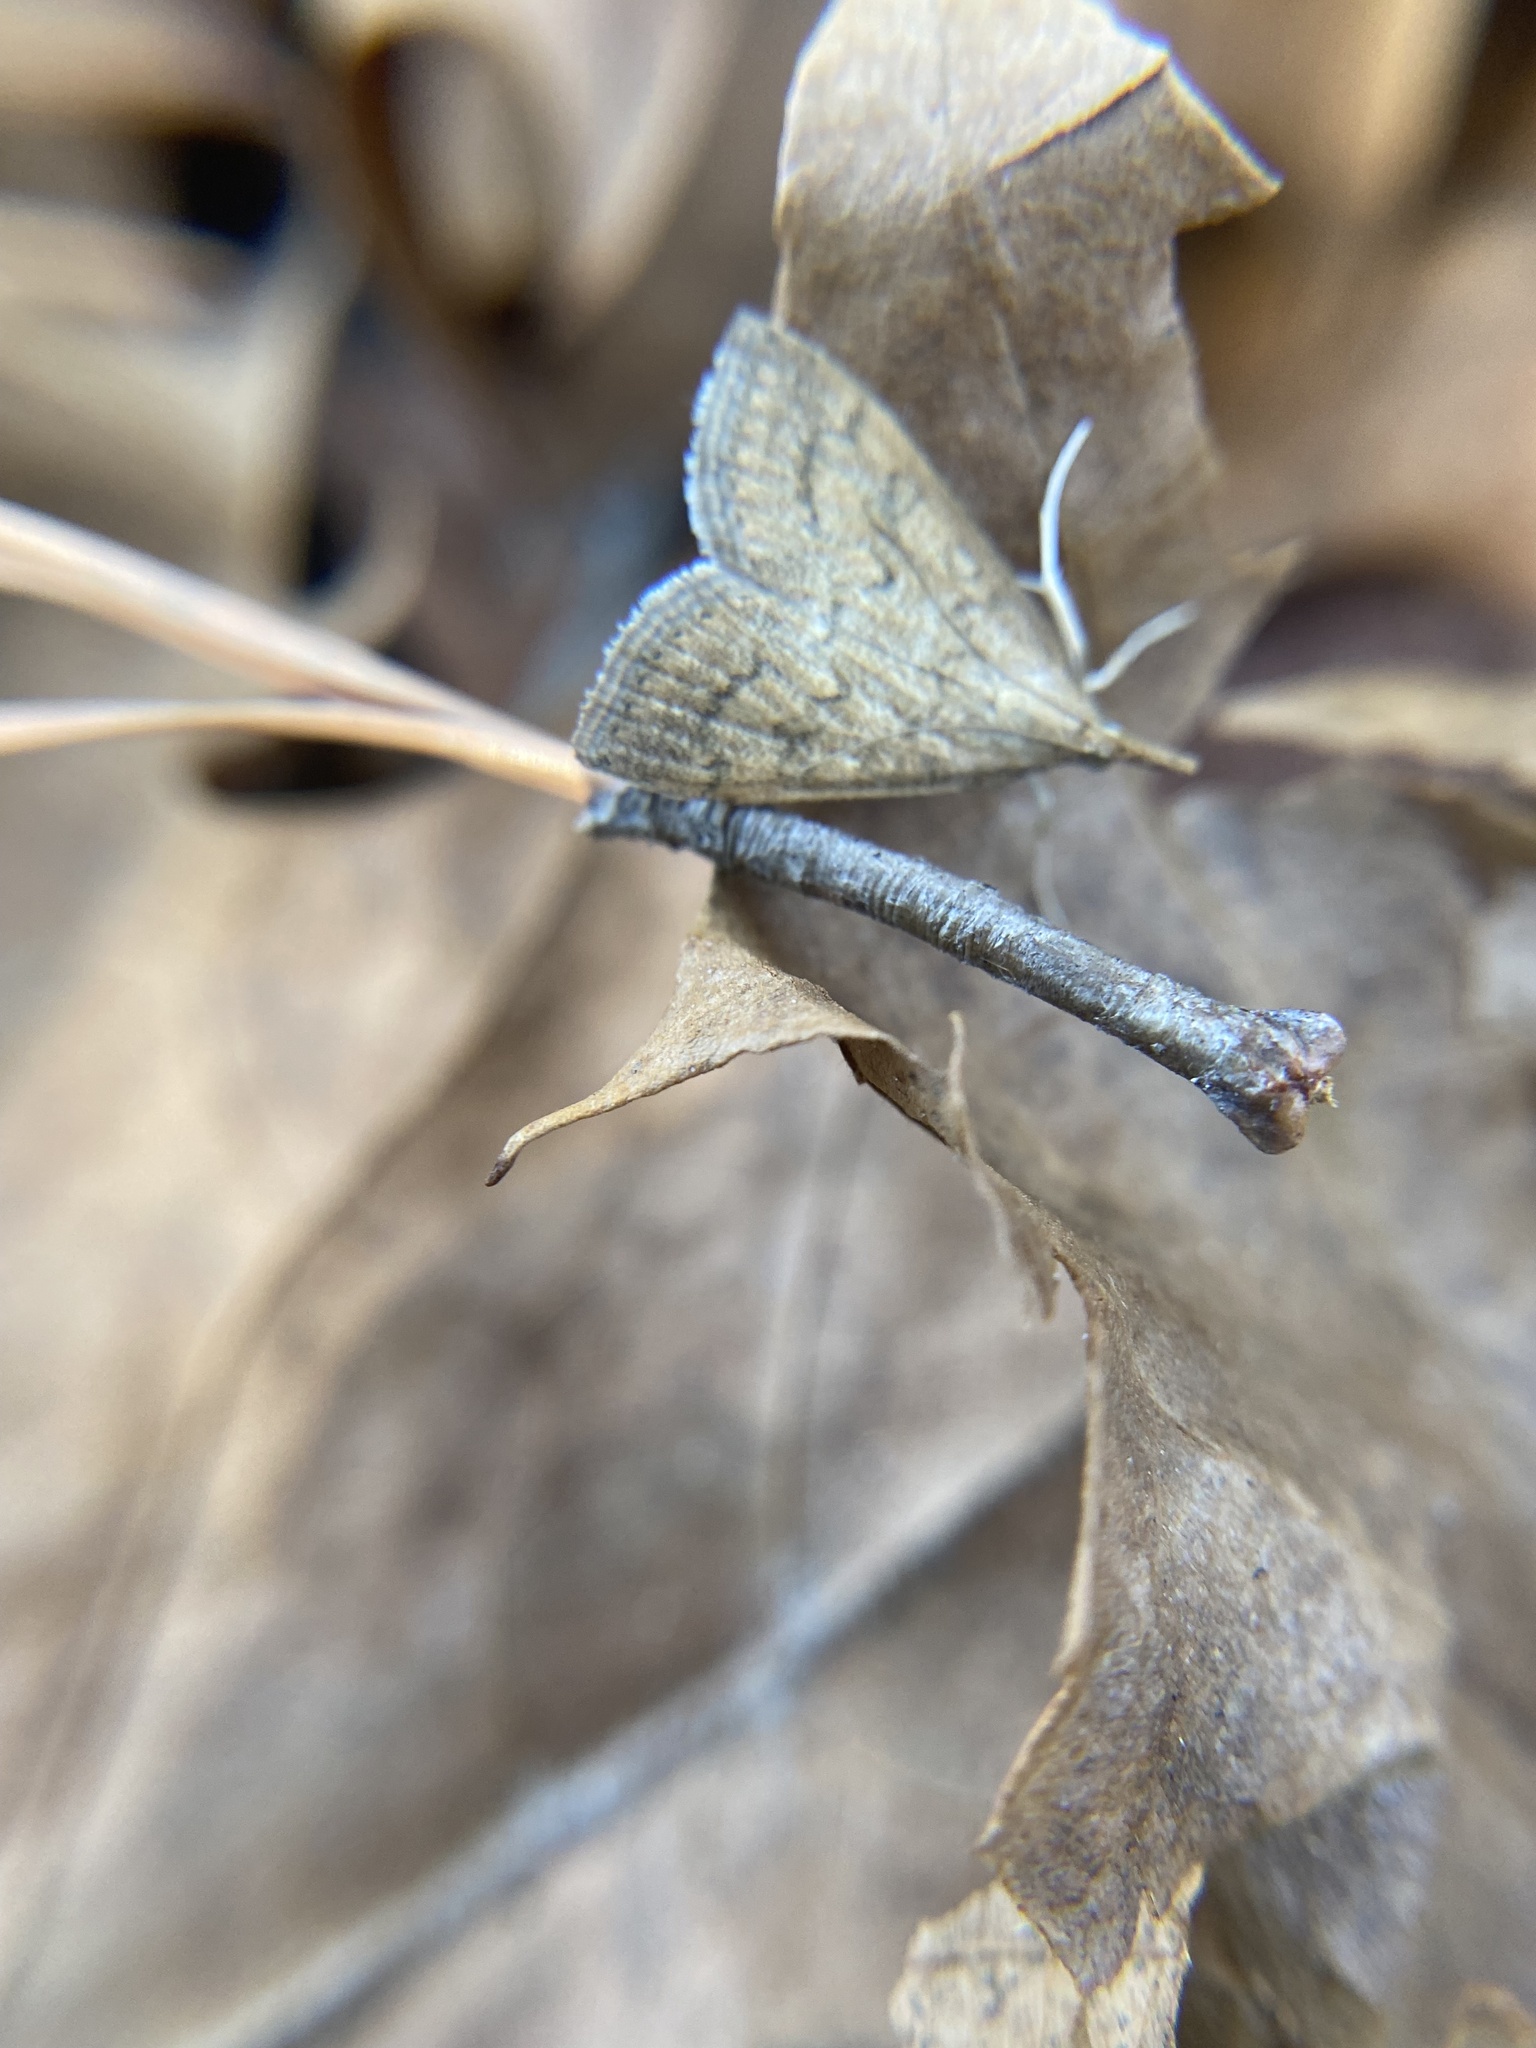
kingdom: Animalia
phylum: Arthropoda
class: Insecta
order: Lepidoptera
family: Crambidae
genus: Udea
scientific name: Udea rubigalis
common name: Celery leaftier moth
